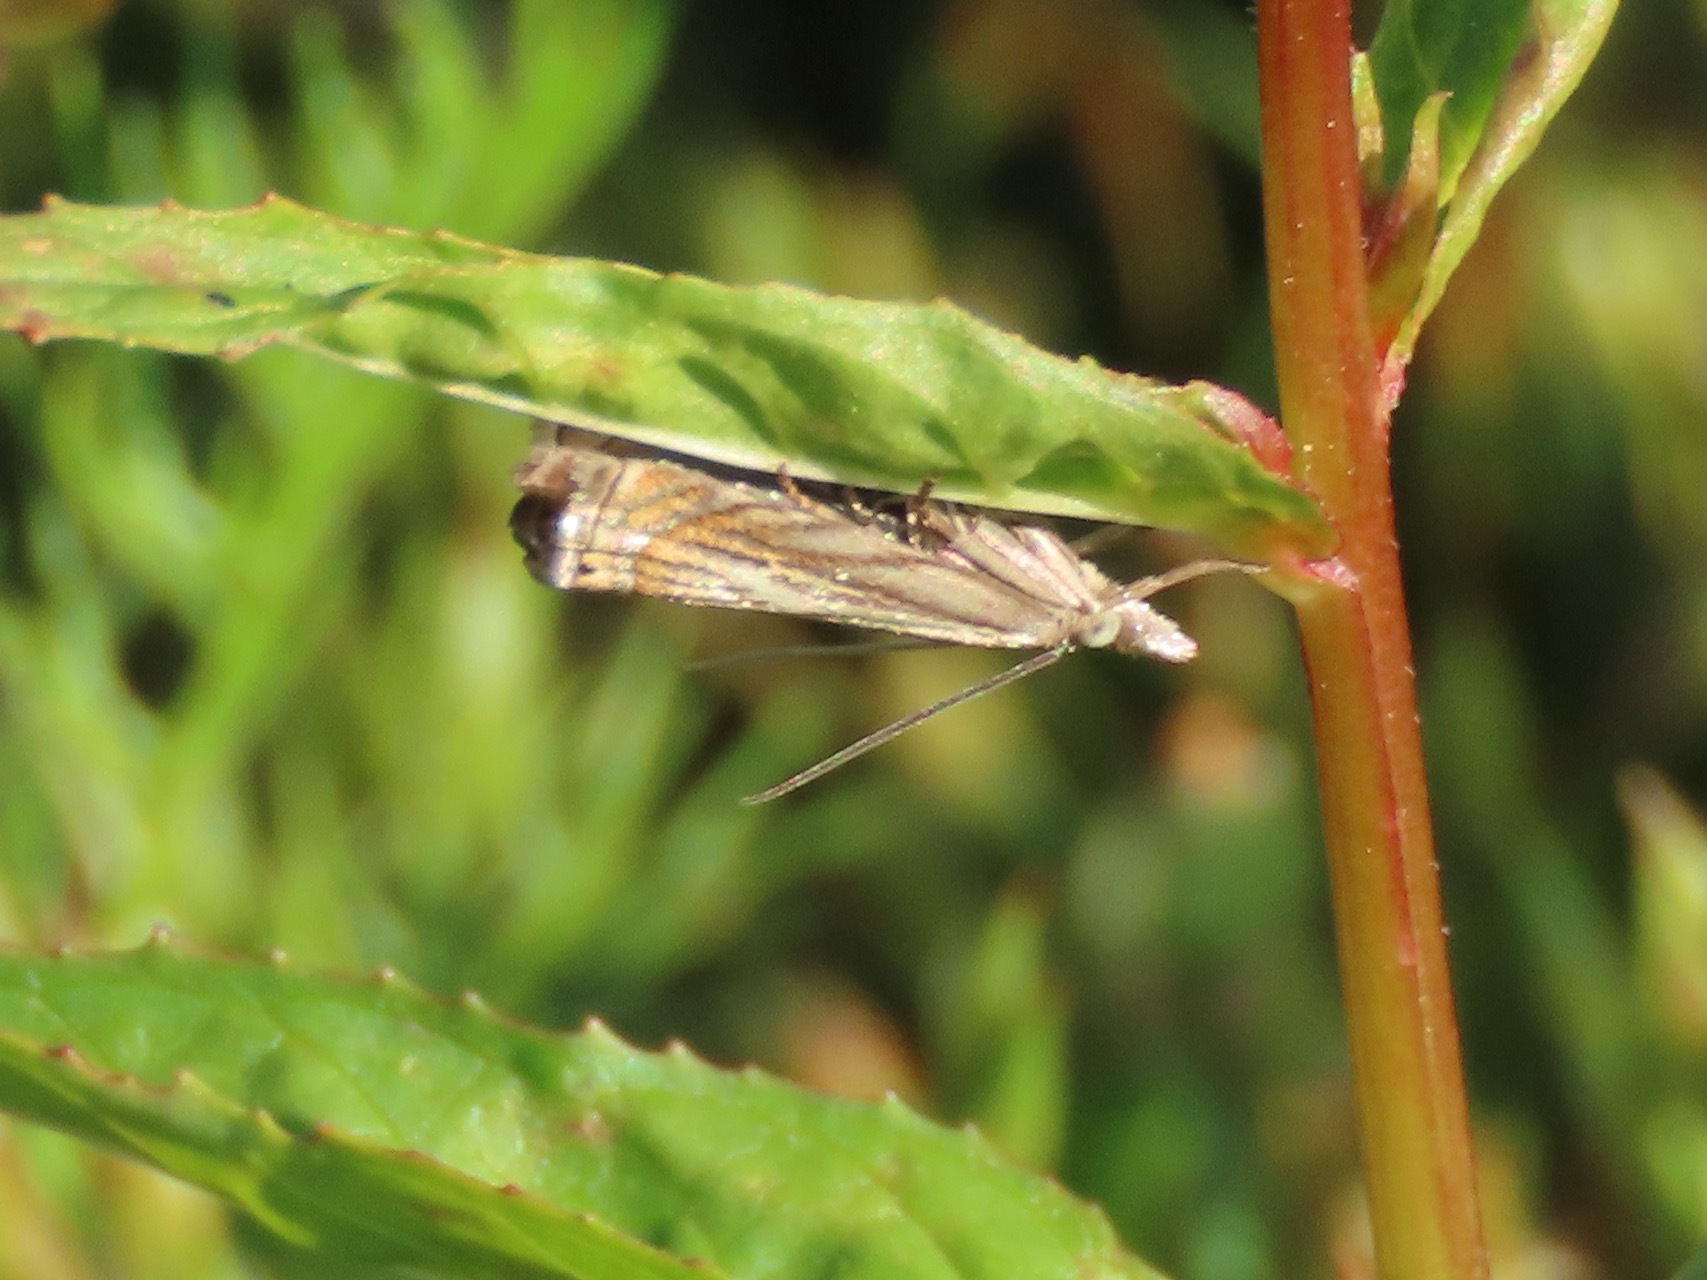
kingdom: Animalia
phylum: Arthropoda
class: Insecta
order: Lepidoptera
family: Crambidae
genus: Chrysoteuchia
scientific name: Chrysoteuchia topiarius
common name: Topiary grass-veneer
